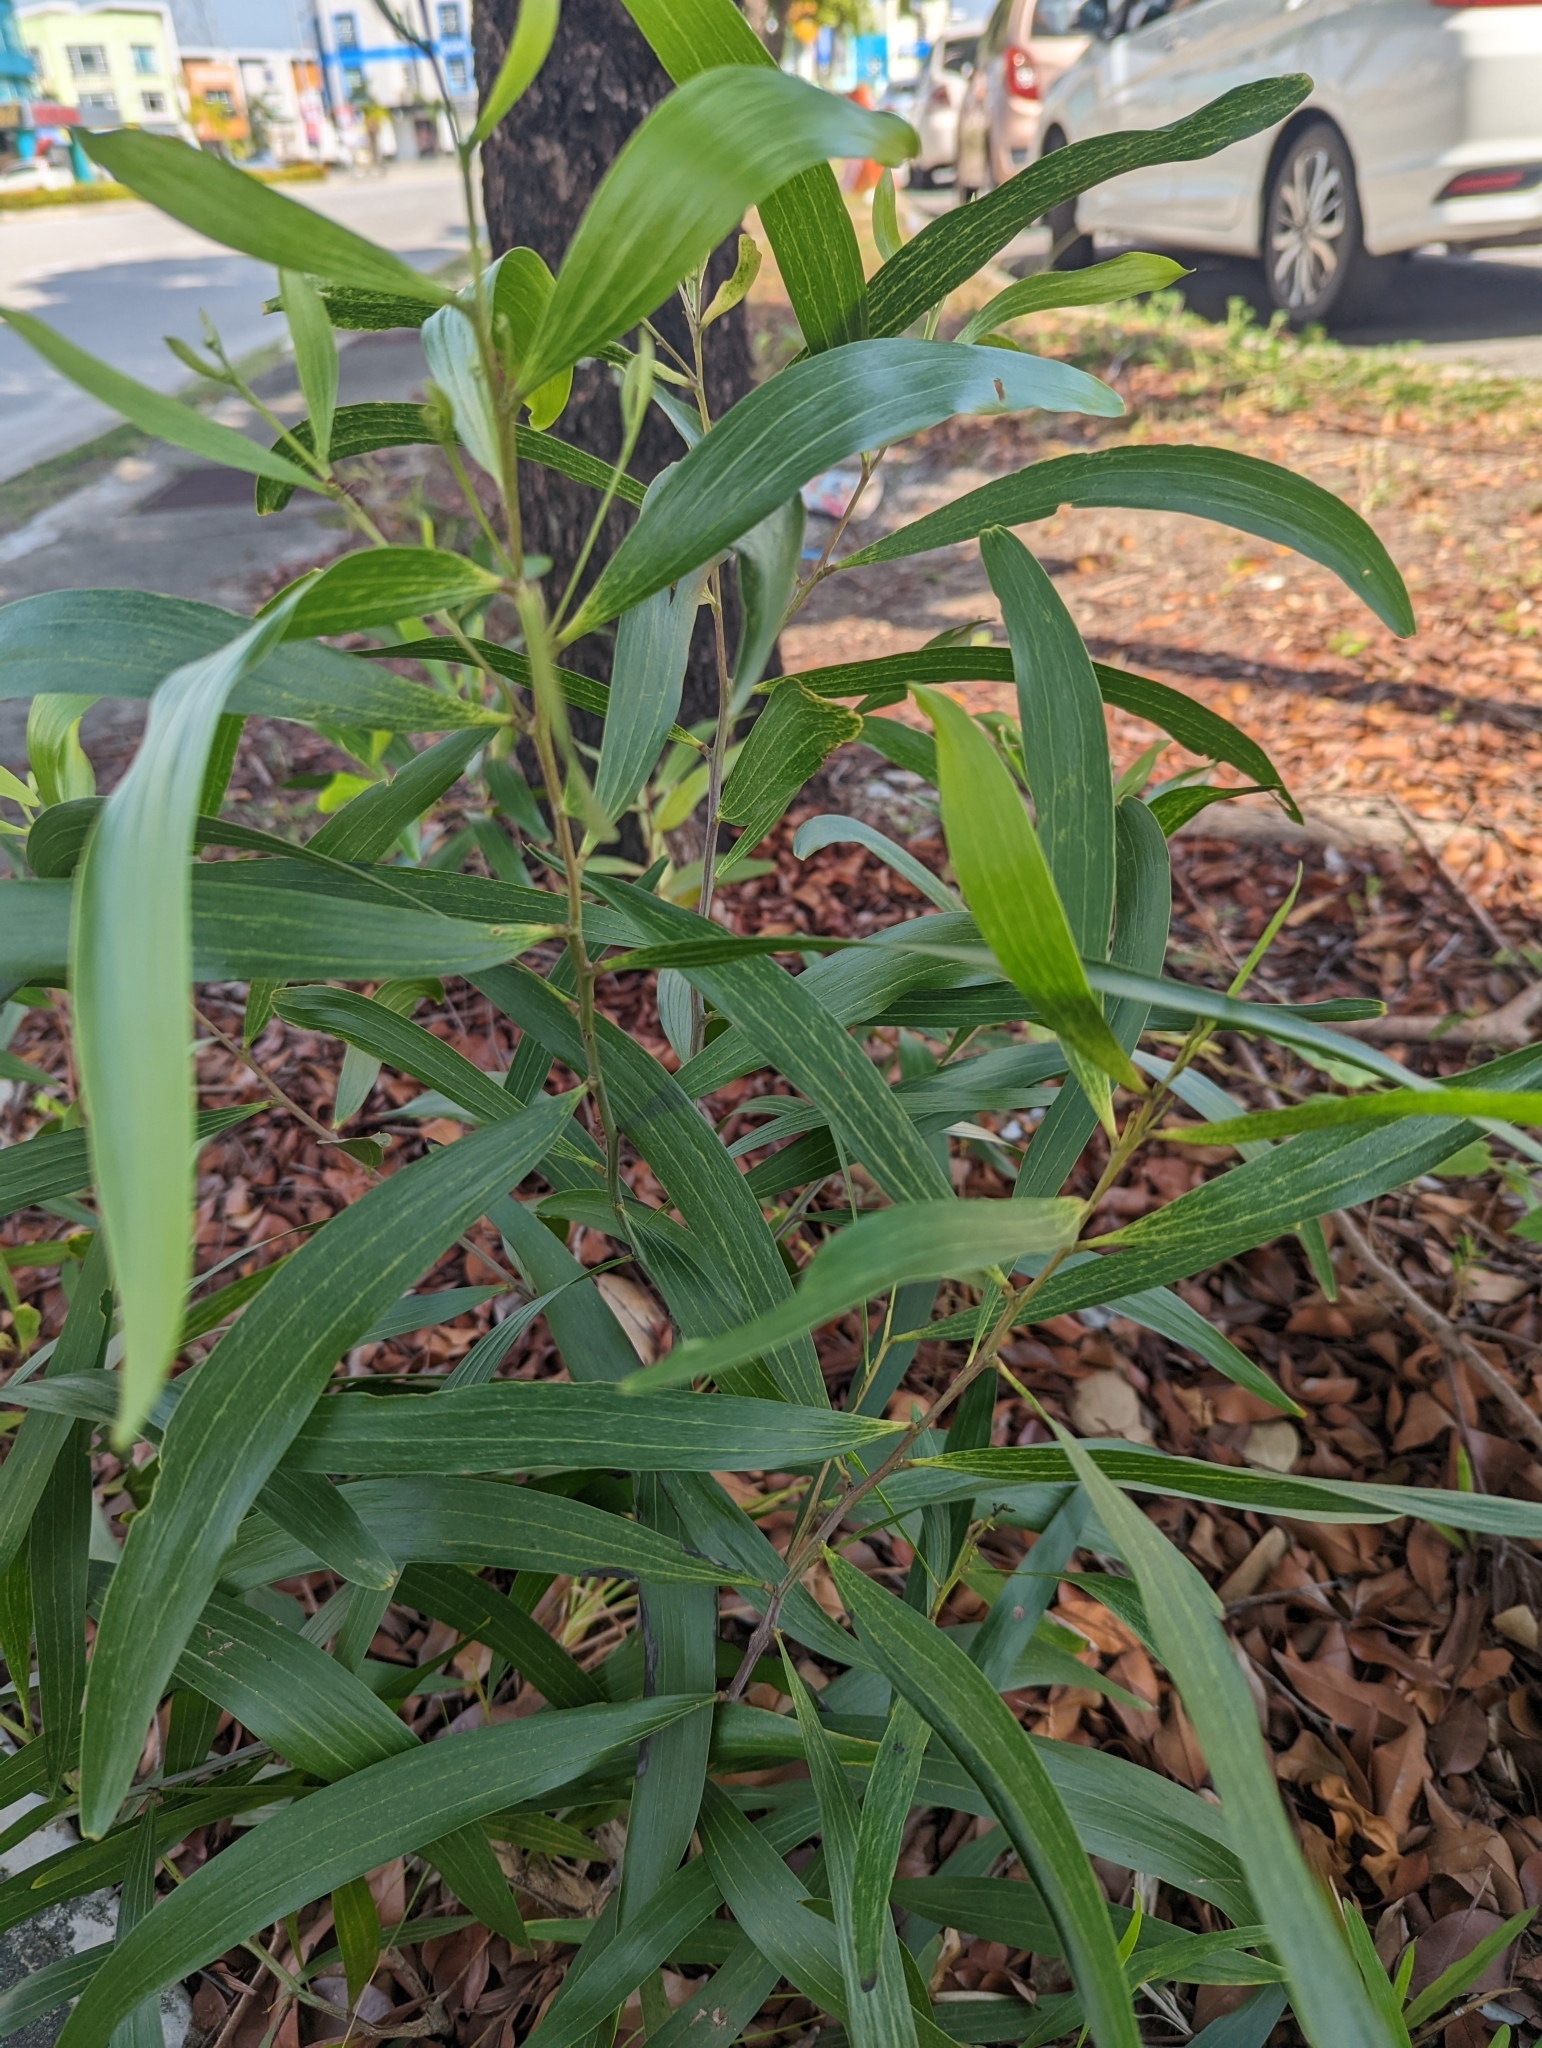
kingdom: Plantae
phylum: Tracheophyta
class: Magnoliopsida
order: Fabales
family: Fabaceae
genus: Acacia
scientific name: Acacia auriculiformis
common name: Earleaf acacia
